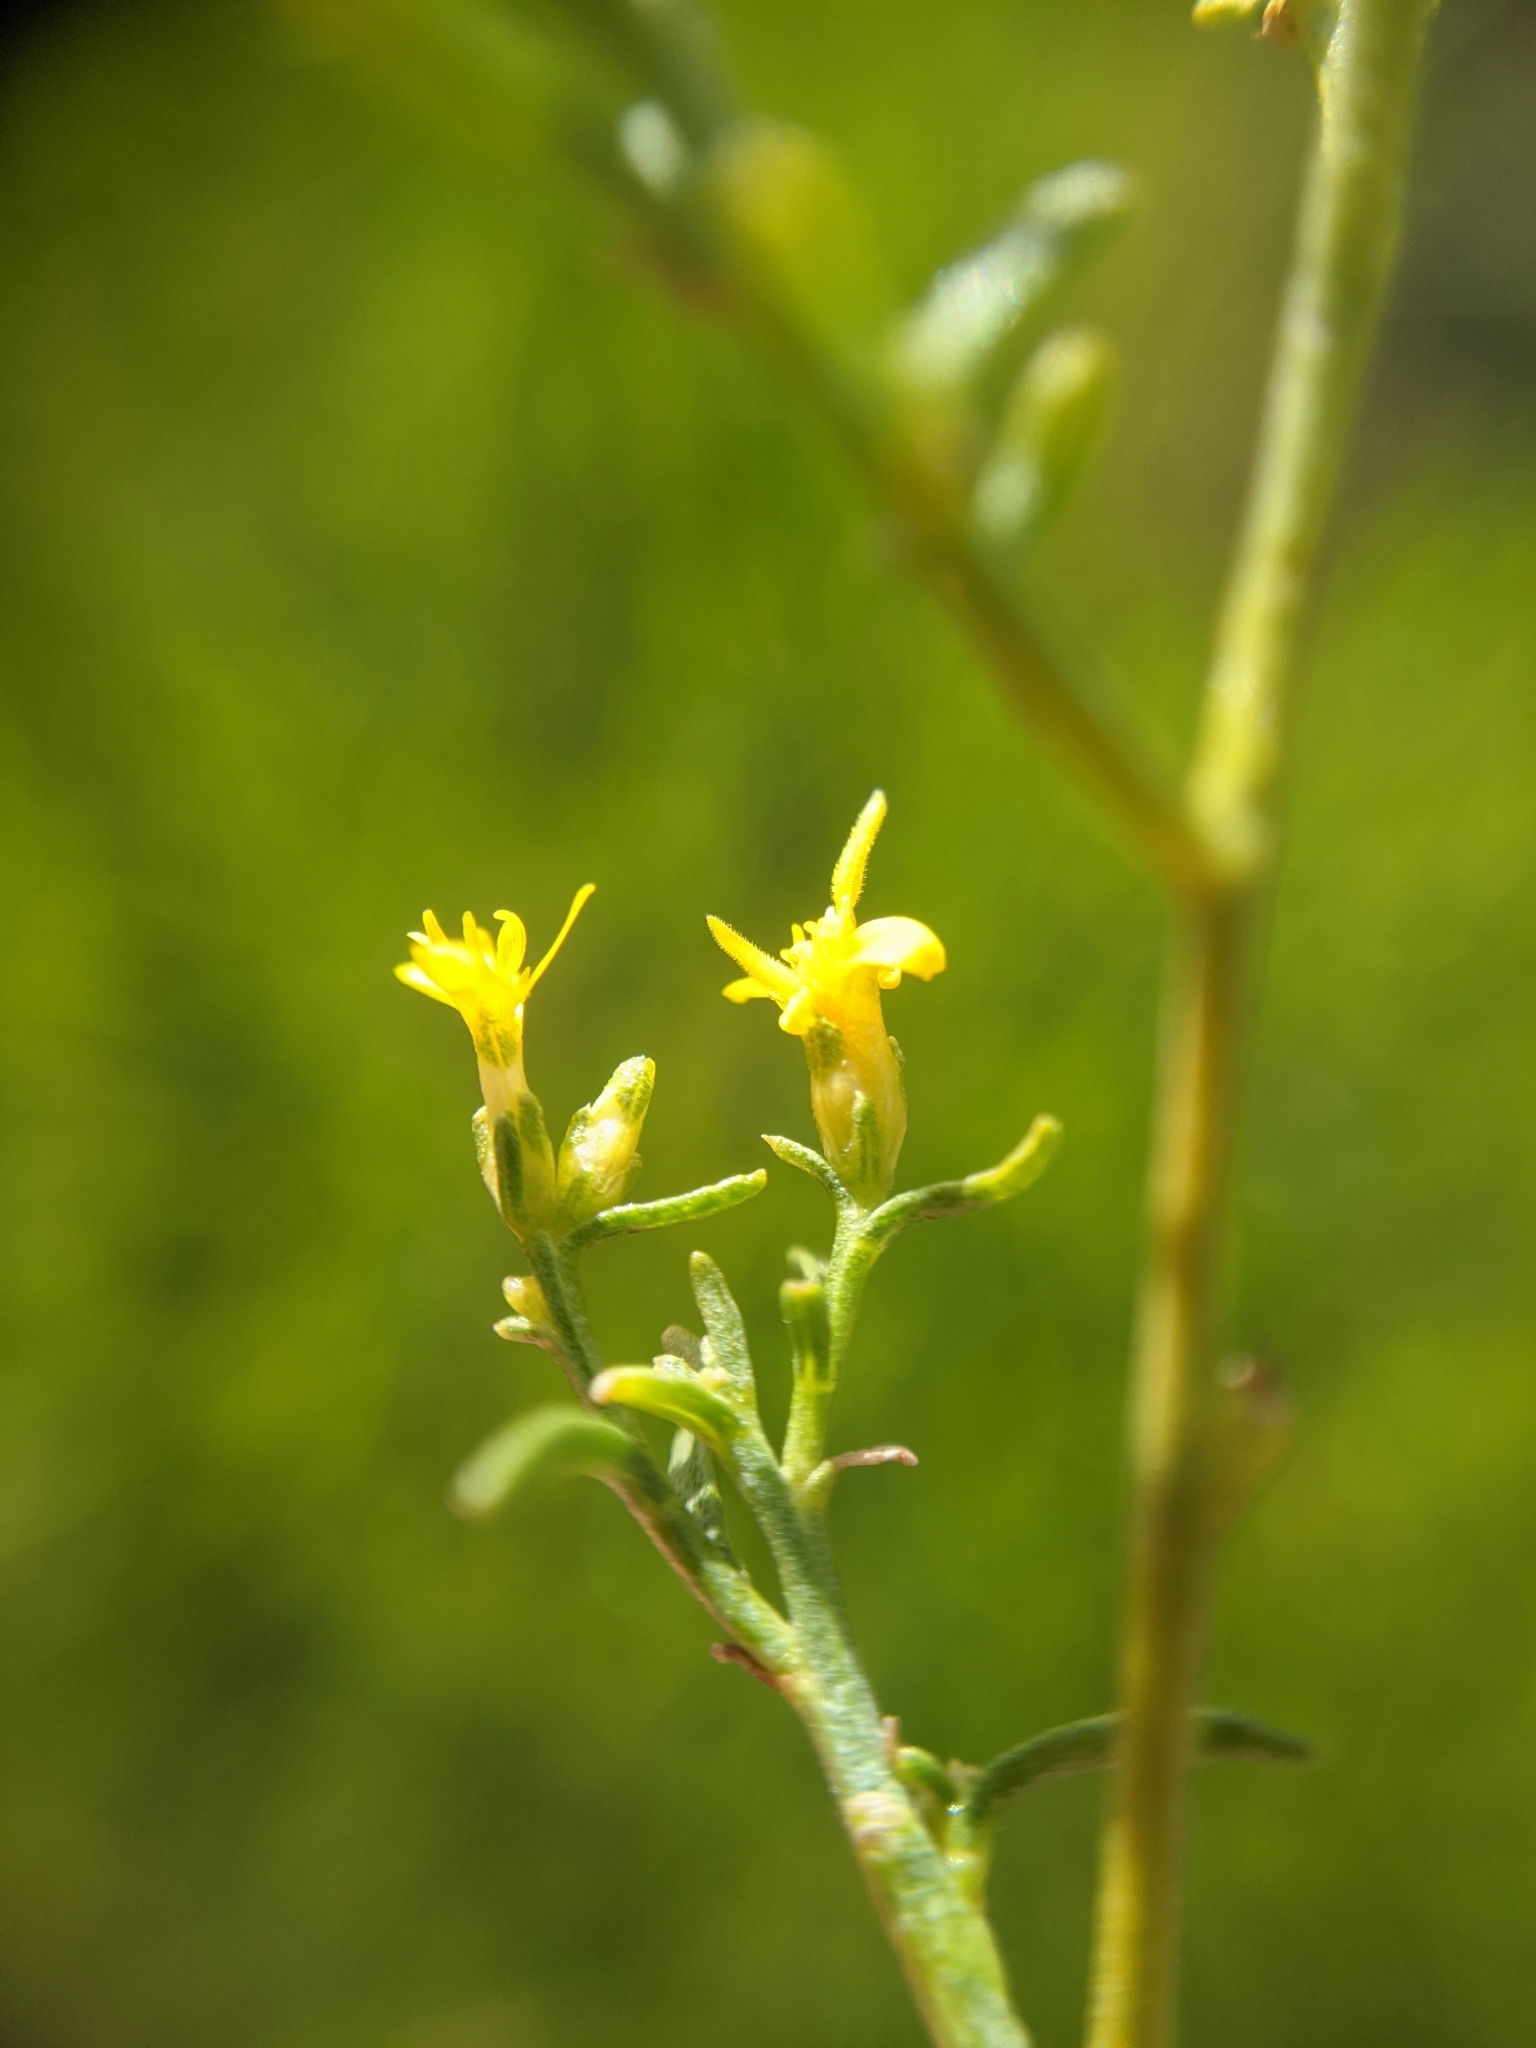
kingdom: Plantae
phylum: Tracheophyta
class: Magnoliopsida
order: Asterales
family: Asteraceae
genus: Gutierrezia
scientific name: Gutierrezia microcephala
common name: Thread snakeweed
